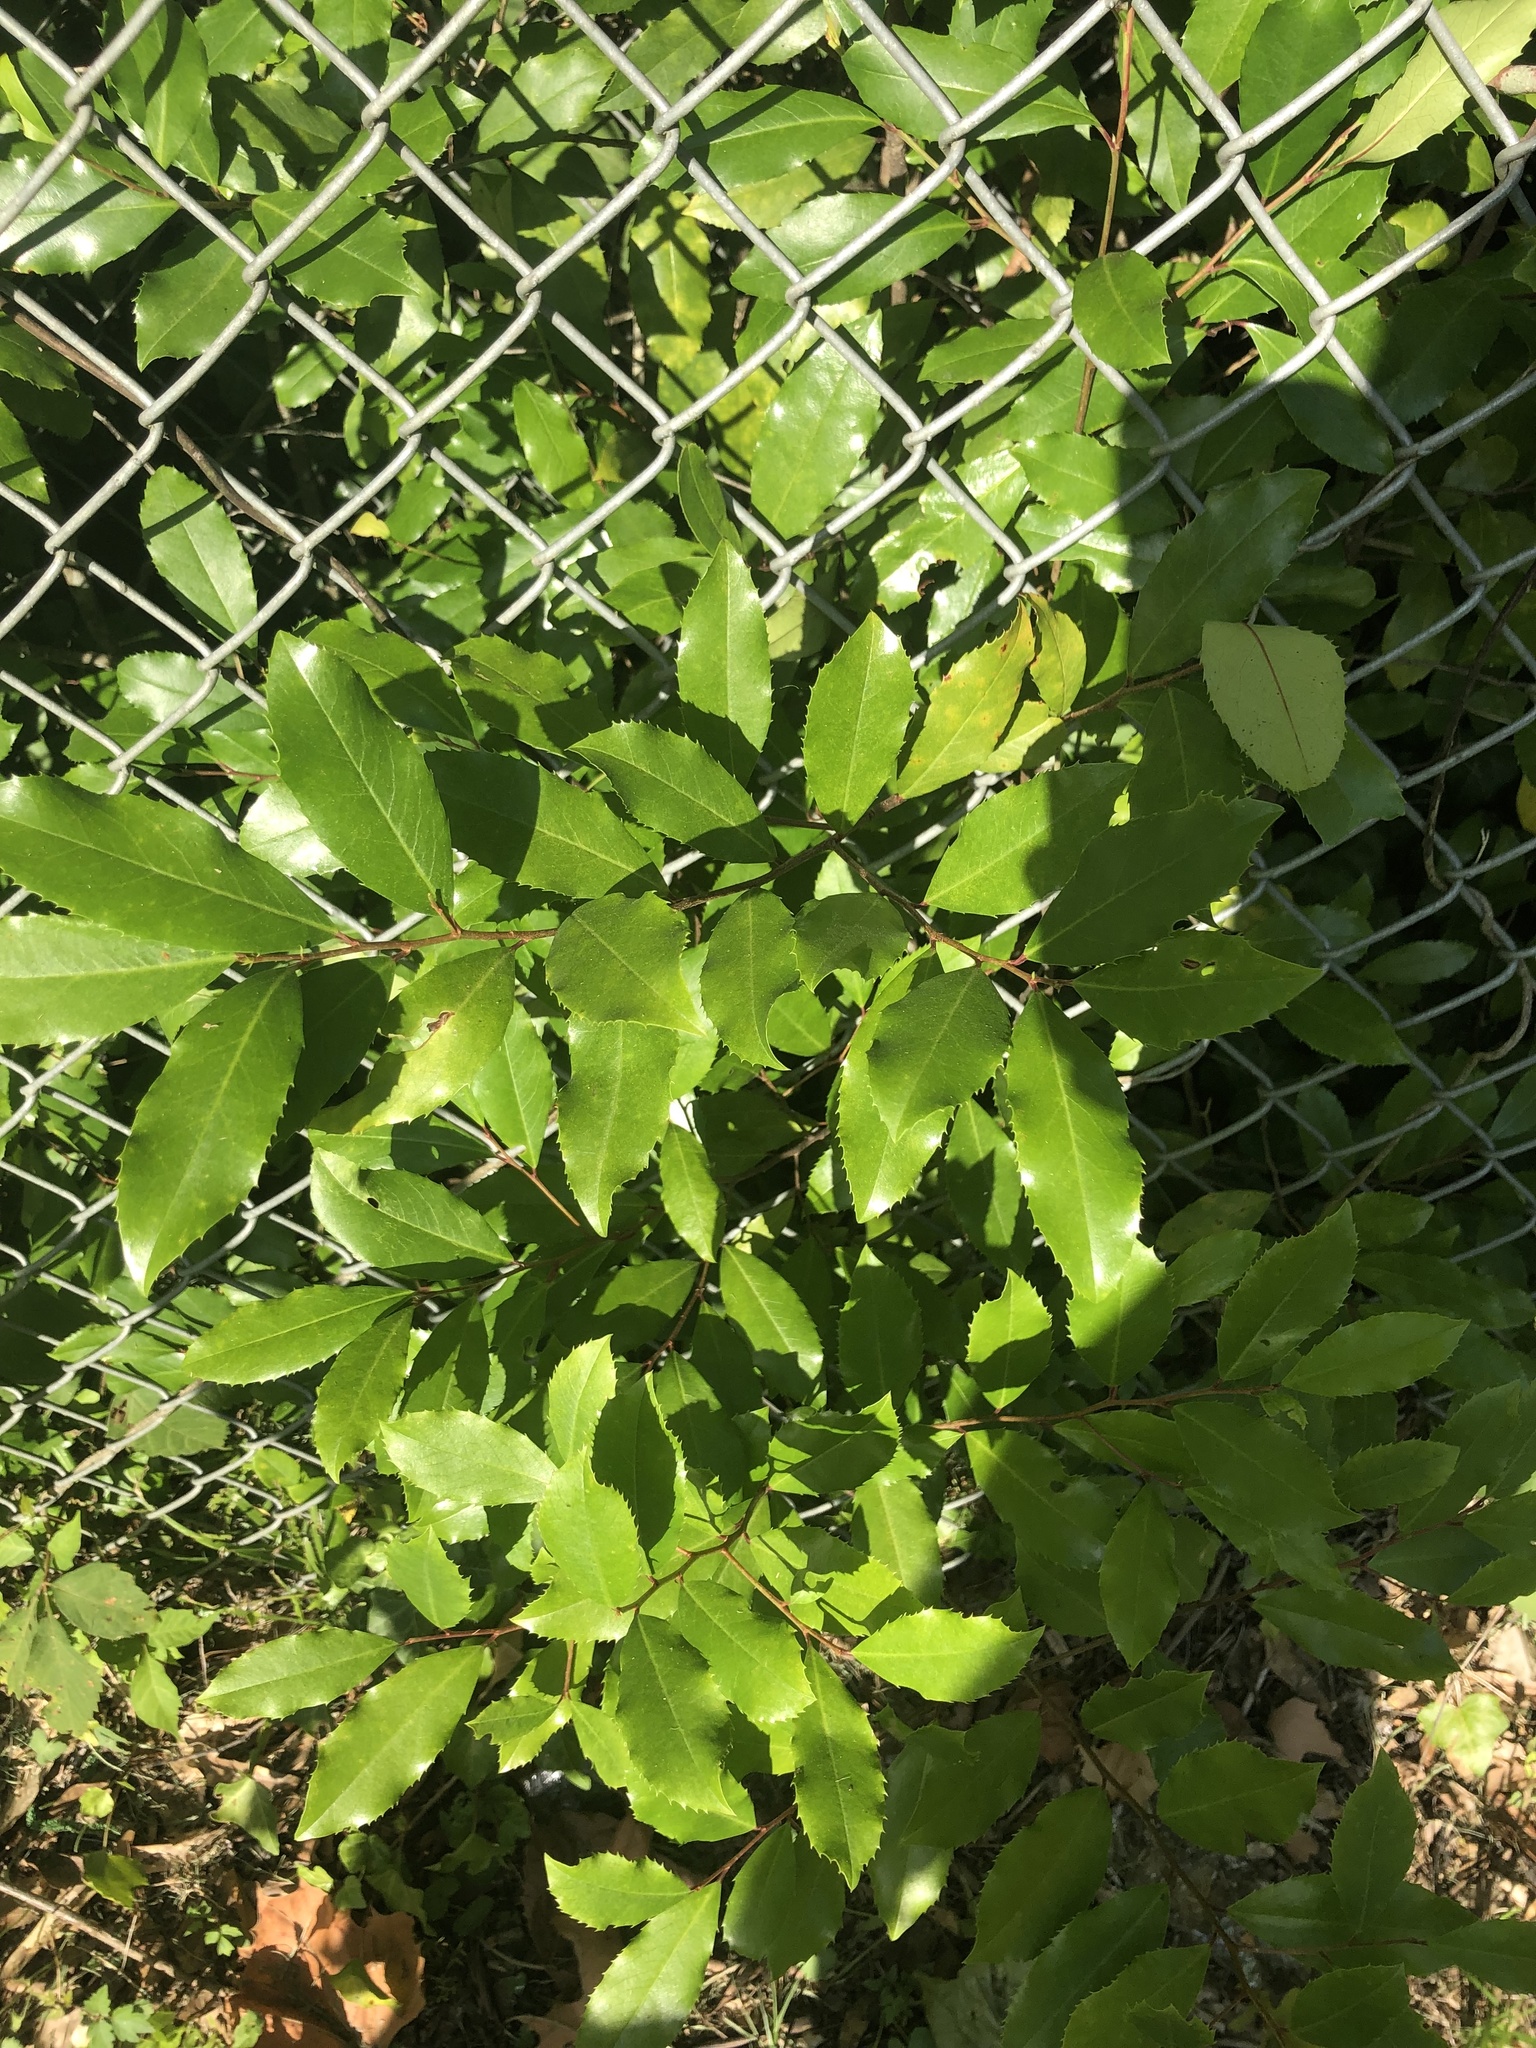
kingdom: Plantae
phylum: Tracheophyta
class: Magnoliopsida
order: Rosales
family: Rosaceae
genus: Prunus
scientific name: Prunus caroliniana
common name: Carolina laurel cherry
